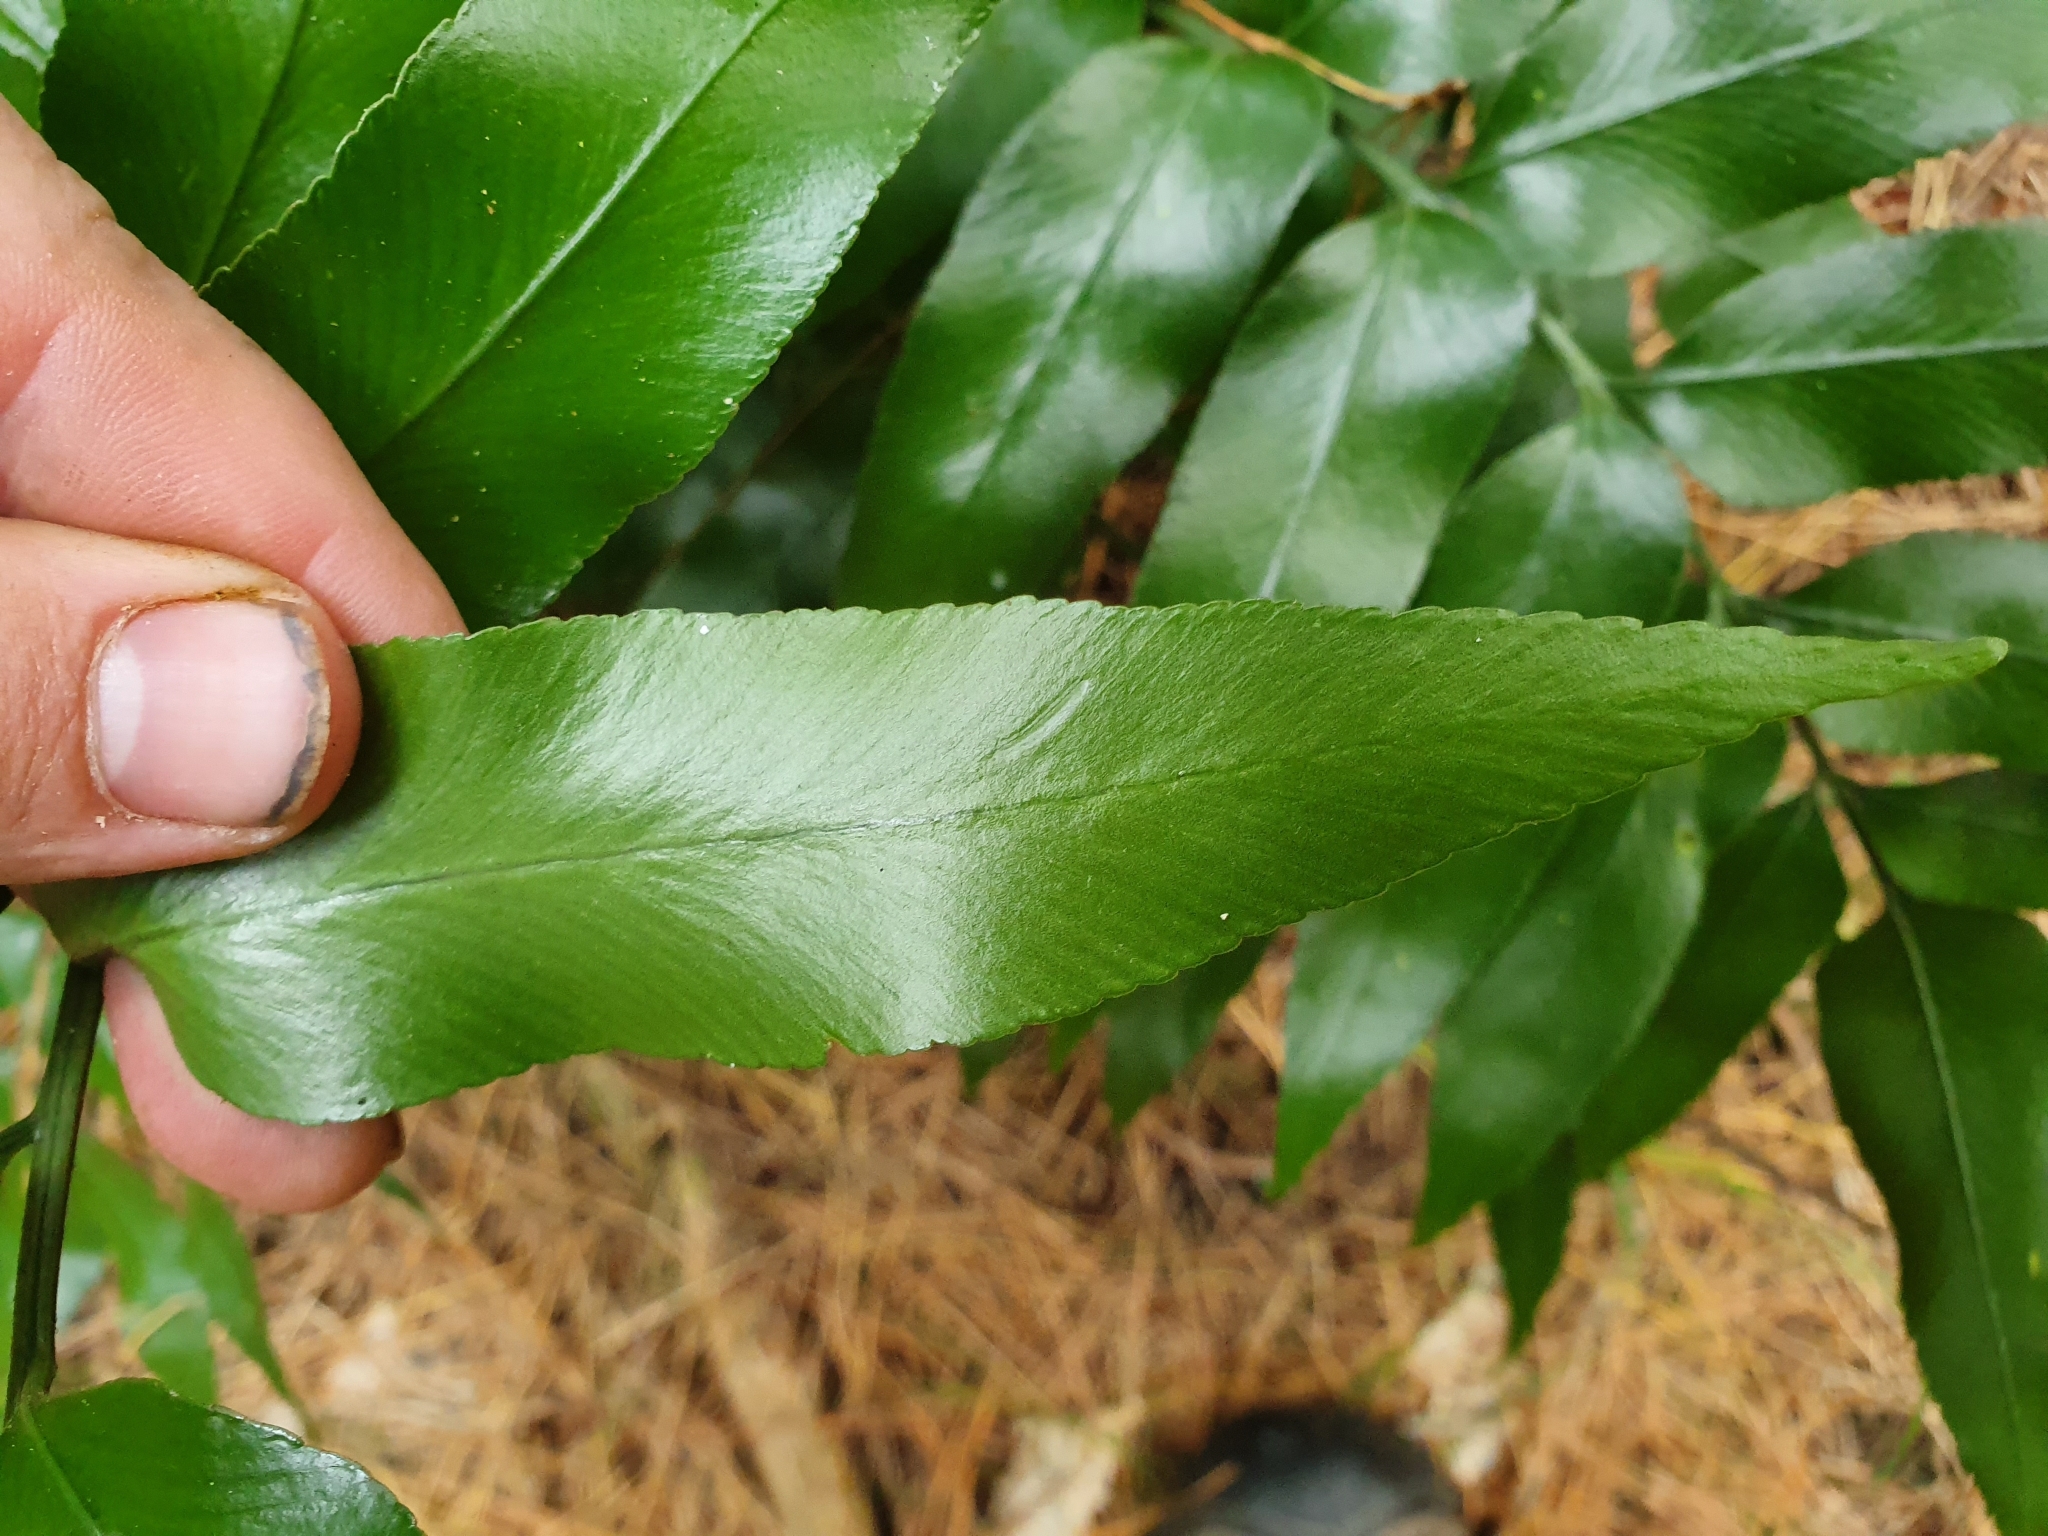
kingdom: Plantae
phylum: Tracheophyta
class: Polypodiopsida
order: Polypodiales
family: Aspleniaceae
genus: Asplenium
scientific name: Asplenium oblongifolium
